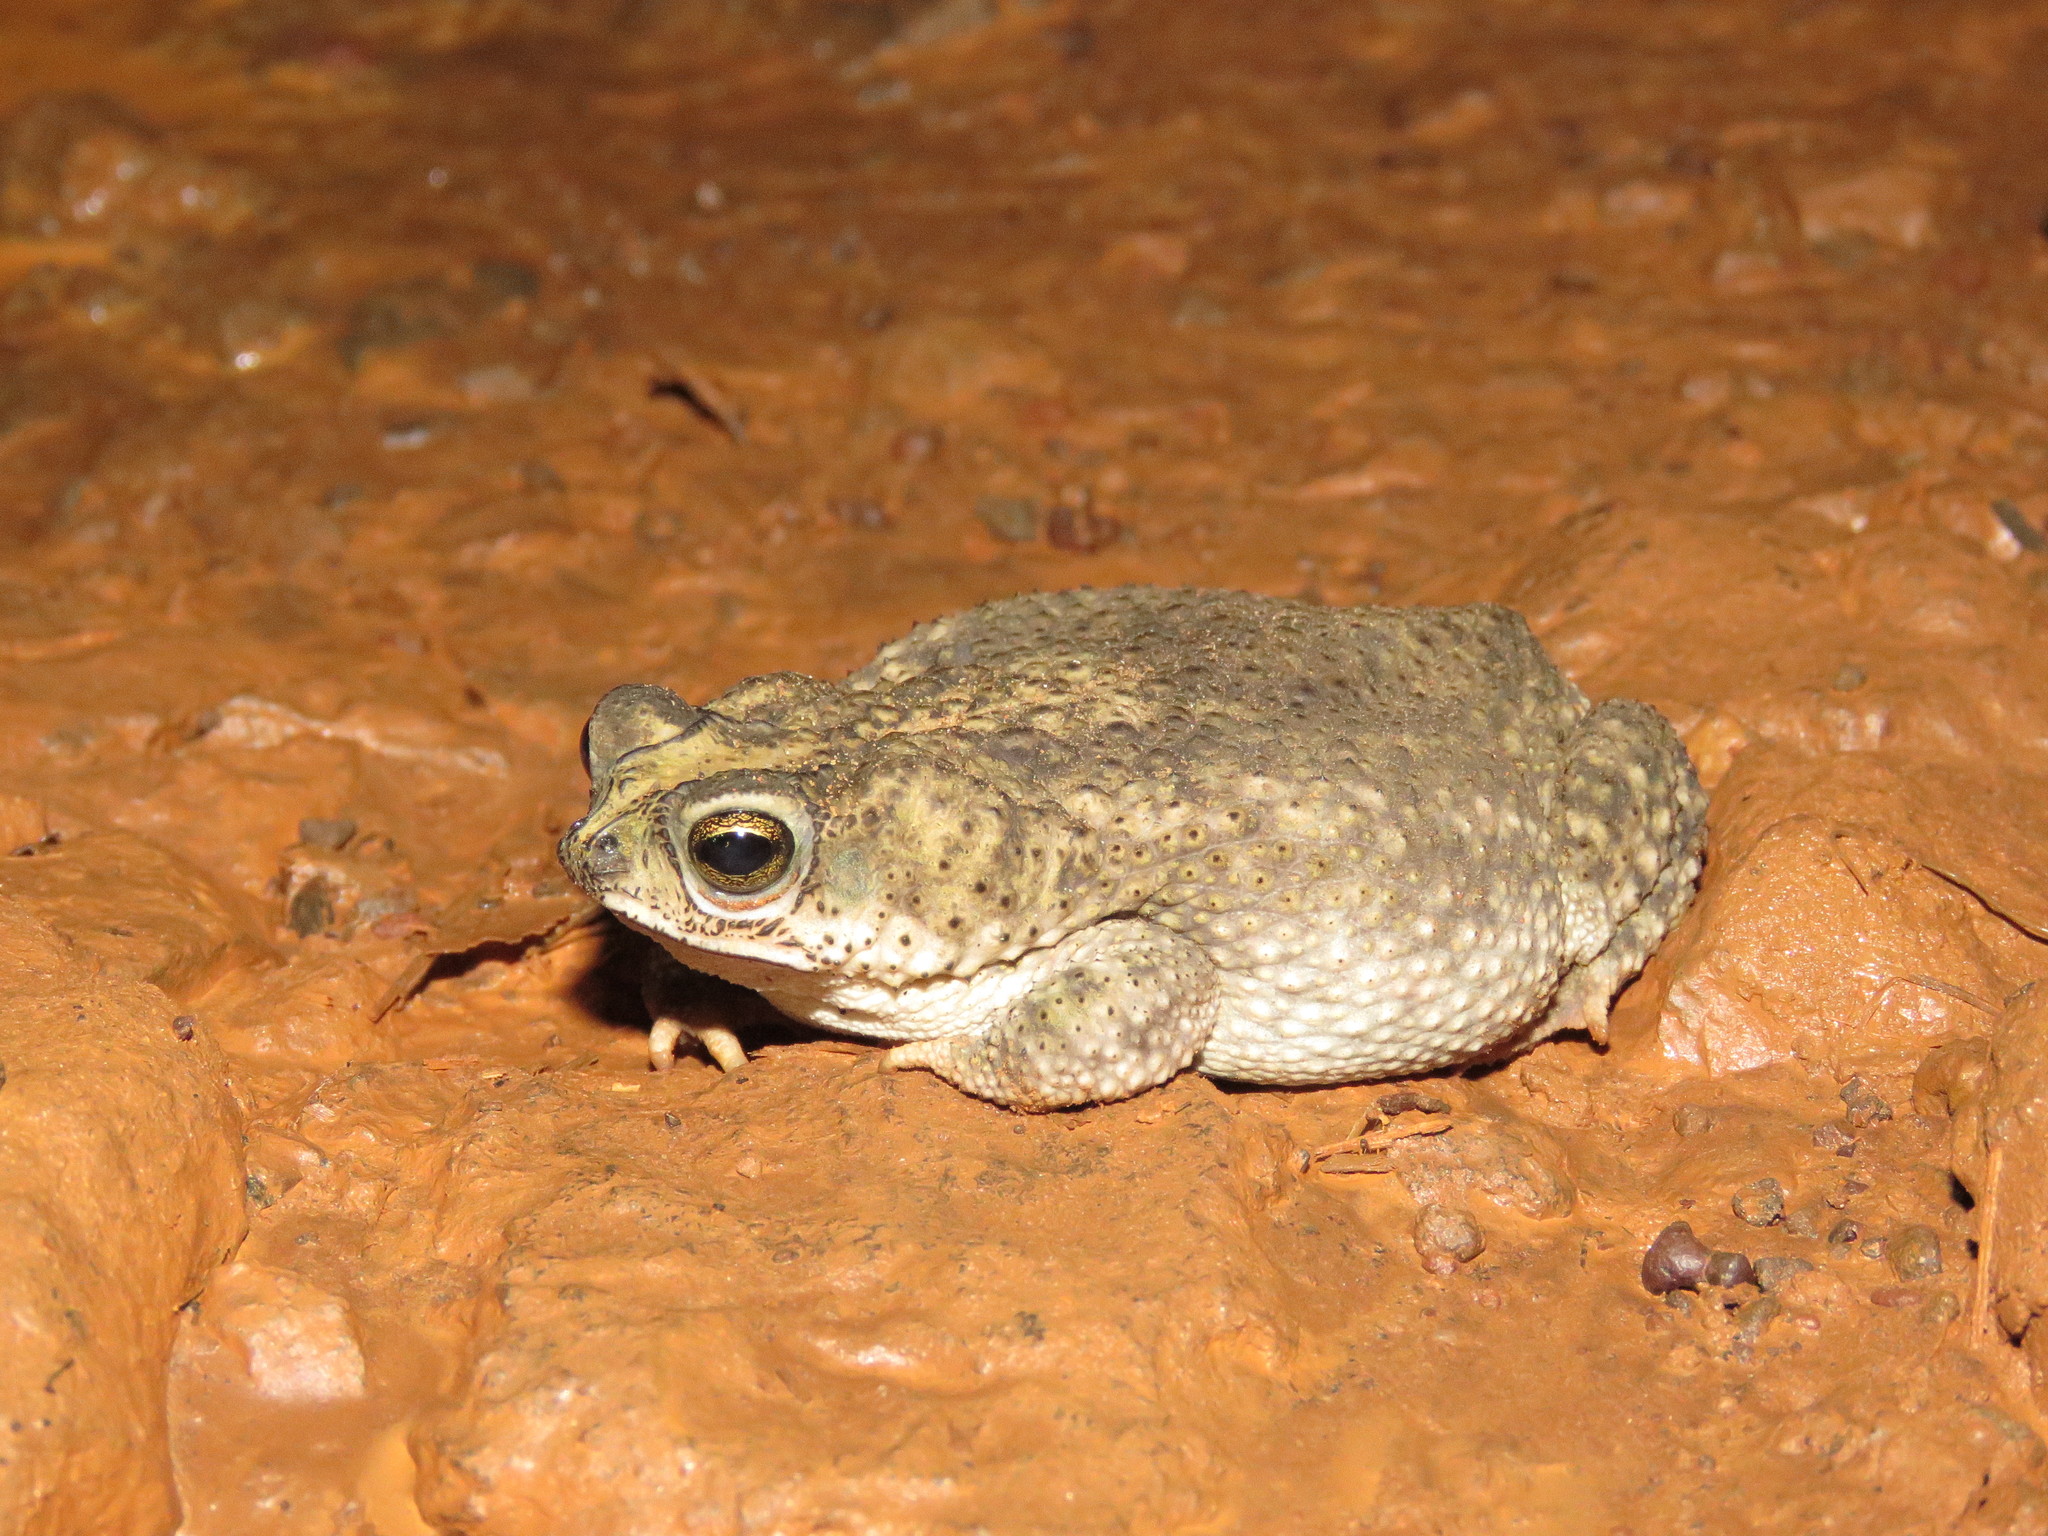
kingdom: Animalia
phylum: Chordata
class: Amphibia
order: Anura
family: Bufonidae
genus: Rhinella
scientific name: Rhinella major
